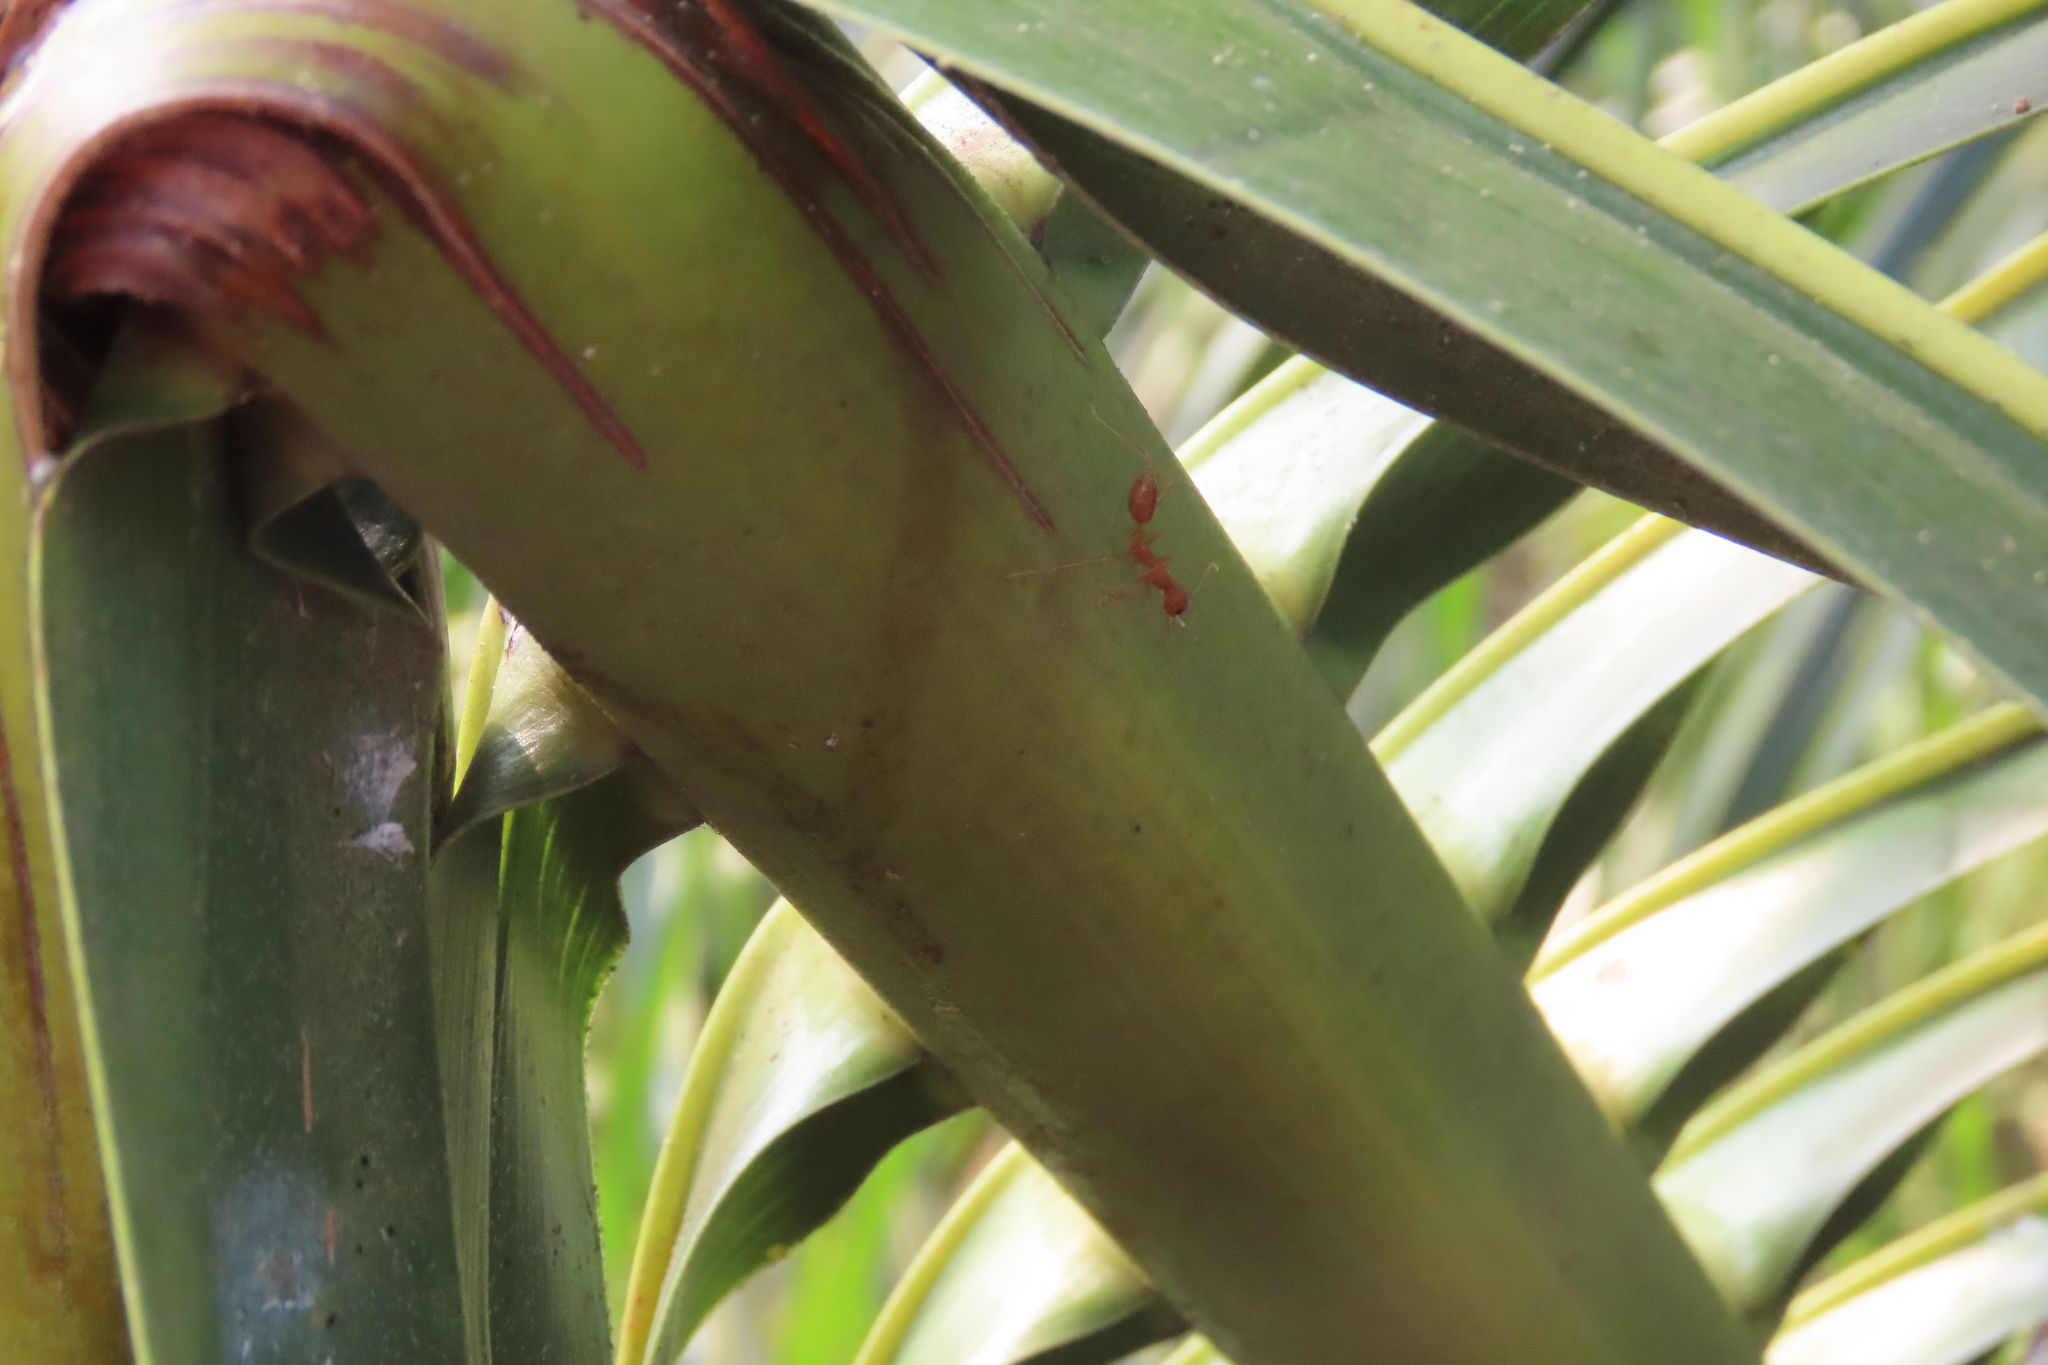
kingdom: Animalia
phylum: Arthropoda
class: Insecta
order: Hymenoptera
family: Formicidae
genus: Oecophylla
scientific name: Oecophylla smaragdina
